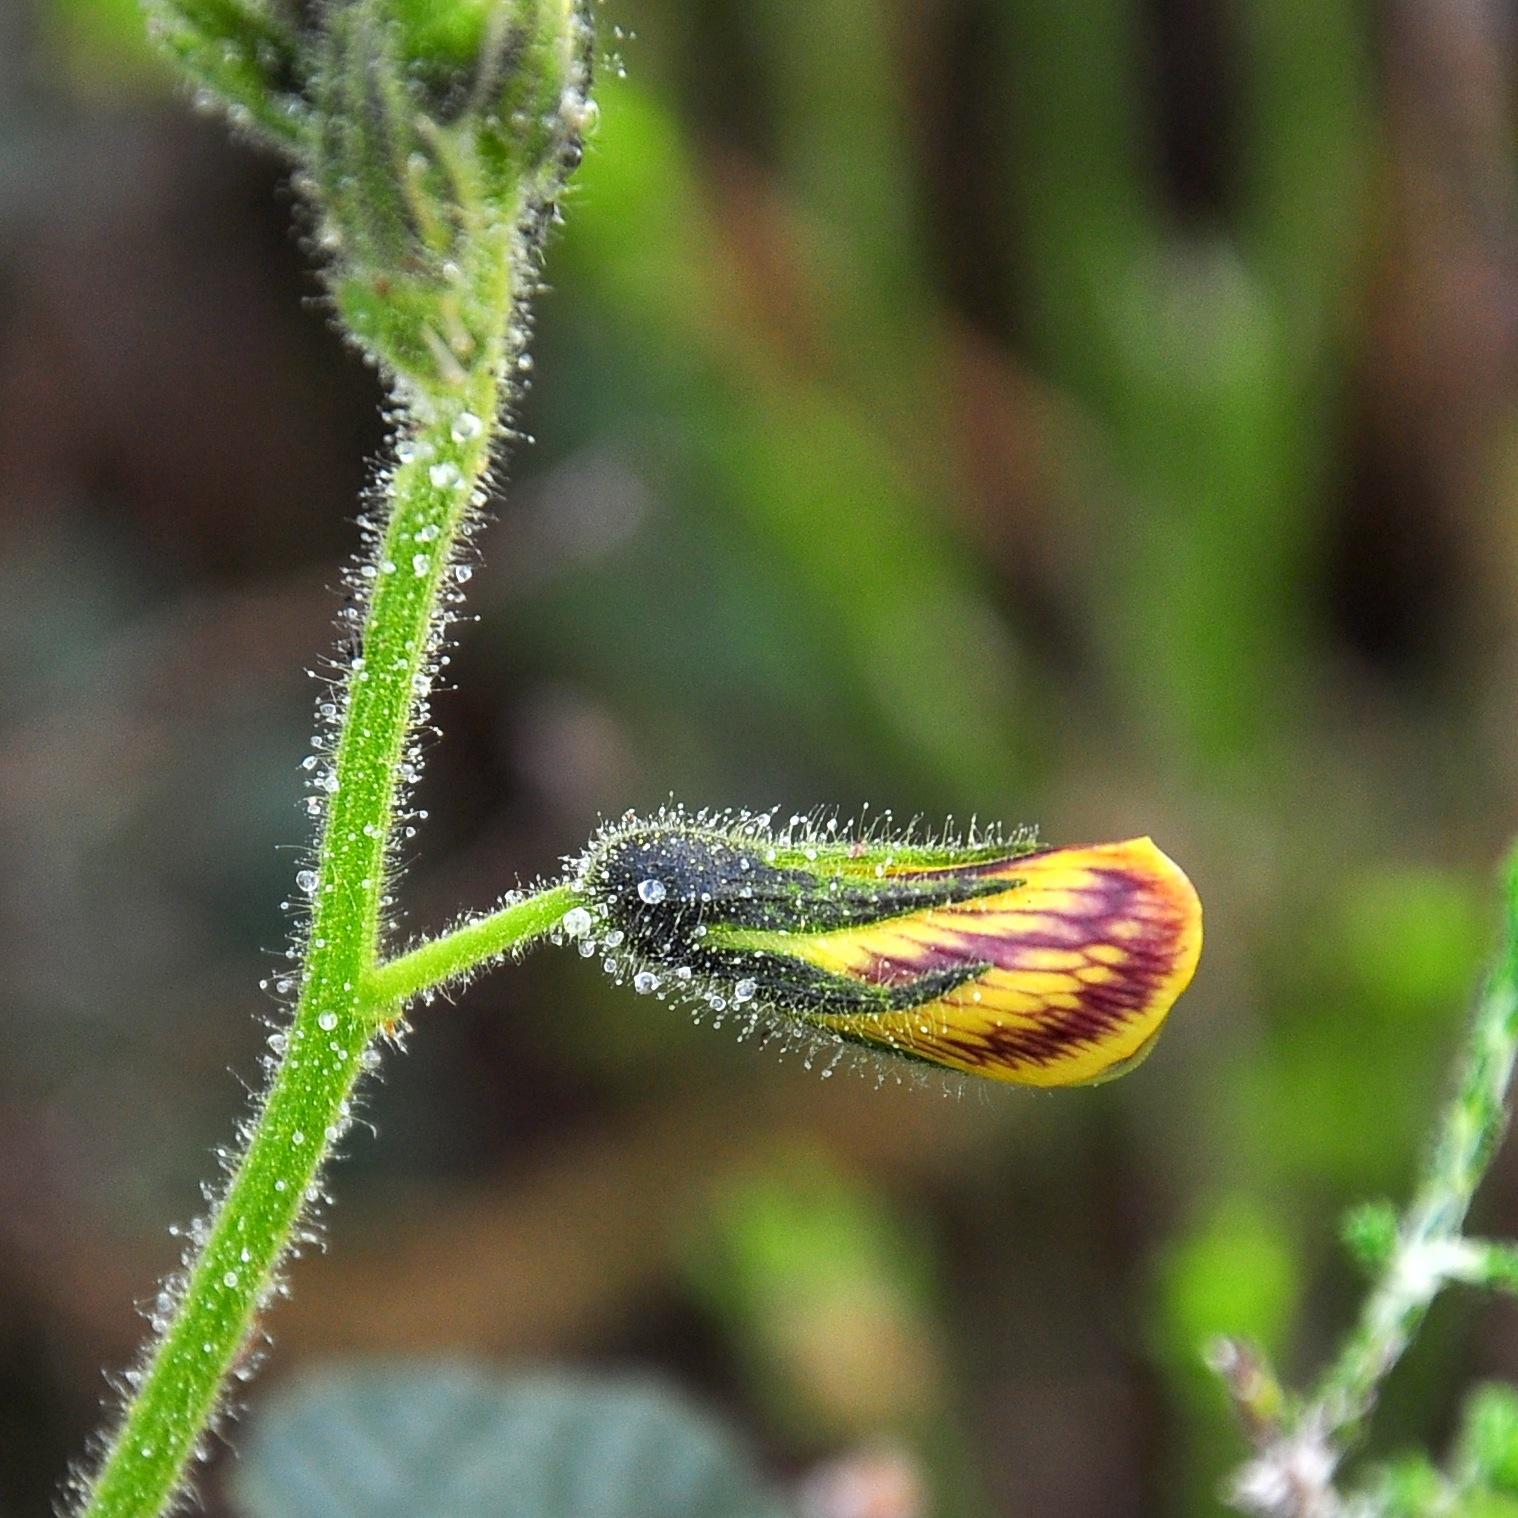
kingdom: Plantae
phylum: Tracheophyta
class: Magnoliopsida
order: Fabales
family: Fabaceae
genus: Bolusafra
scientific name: Bolusafra bituminosa
